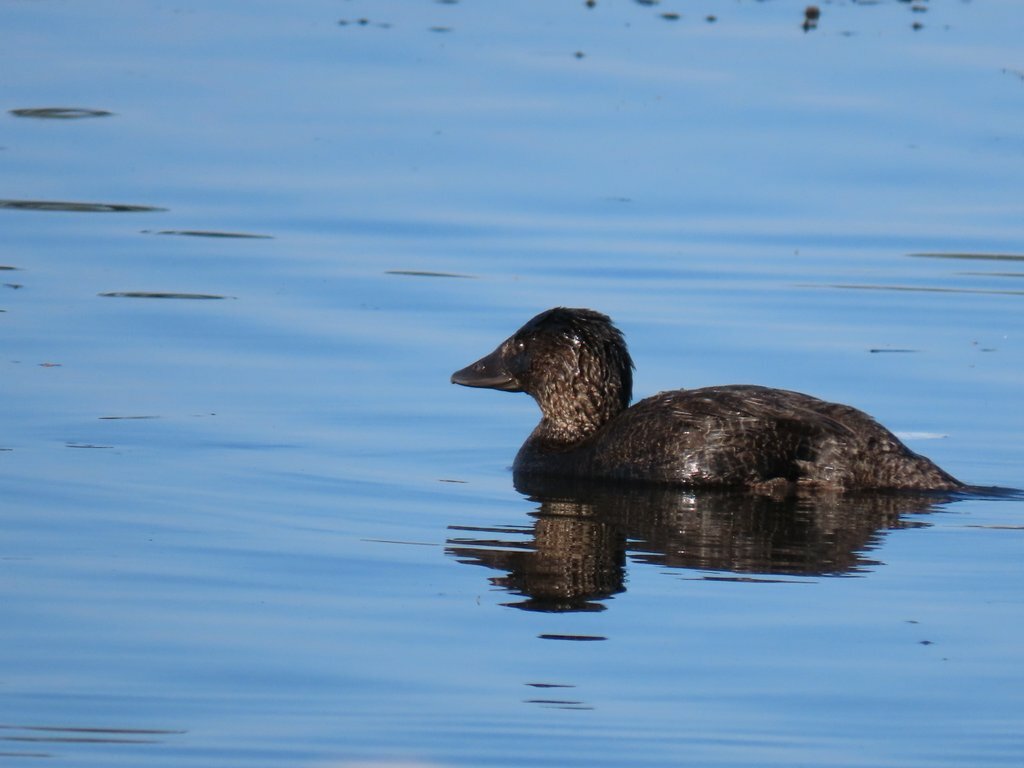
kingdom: Animalia
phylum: Chordata
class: Aves
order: Anseriformes
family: Anatidae
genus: Biziura
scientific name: Biziura lobata
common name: Musk duck
